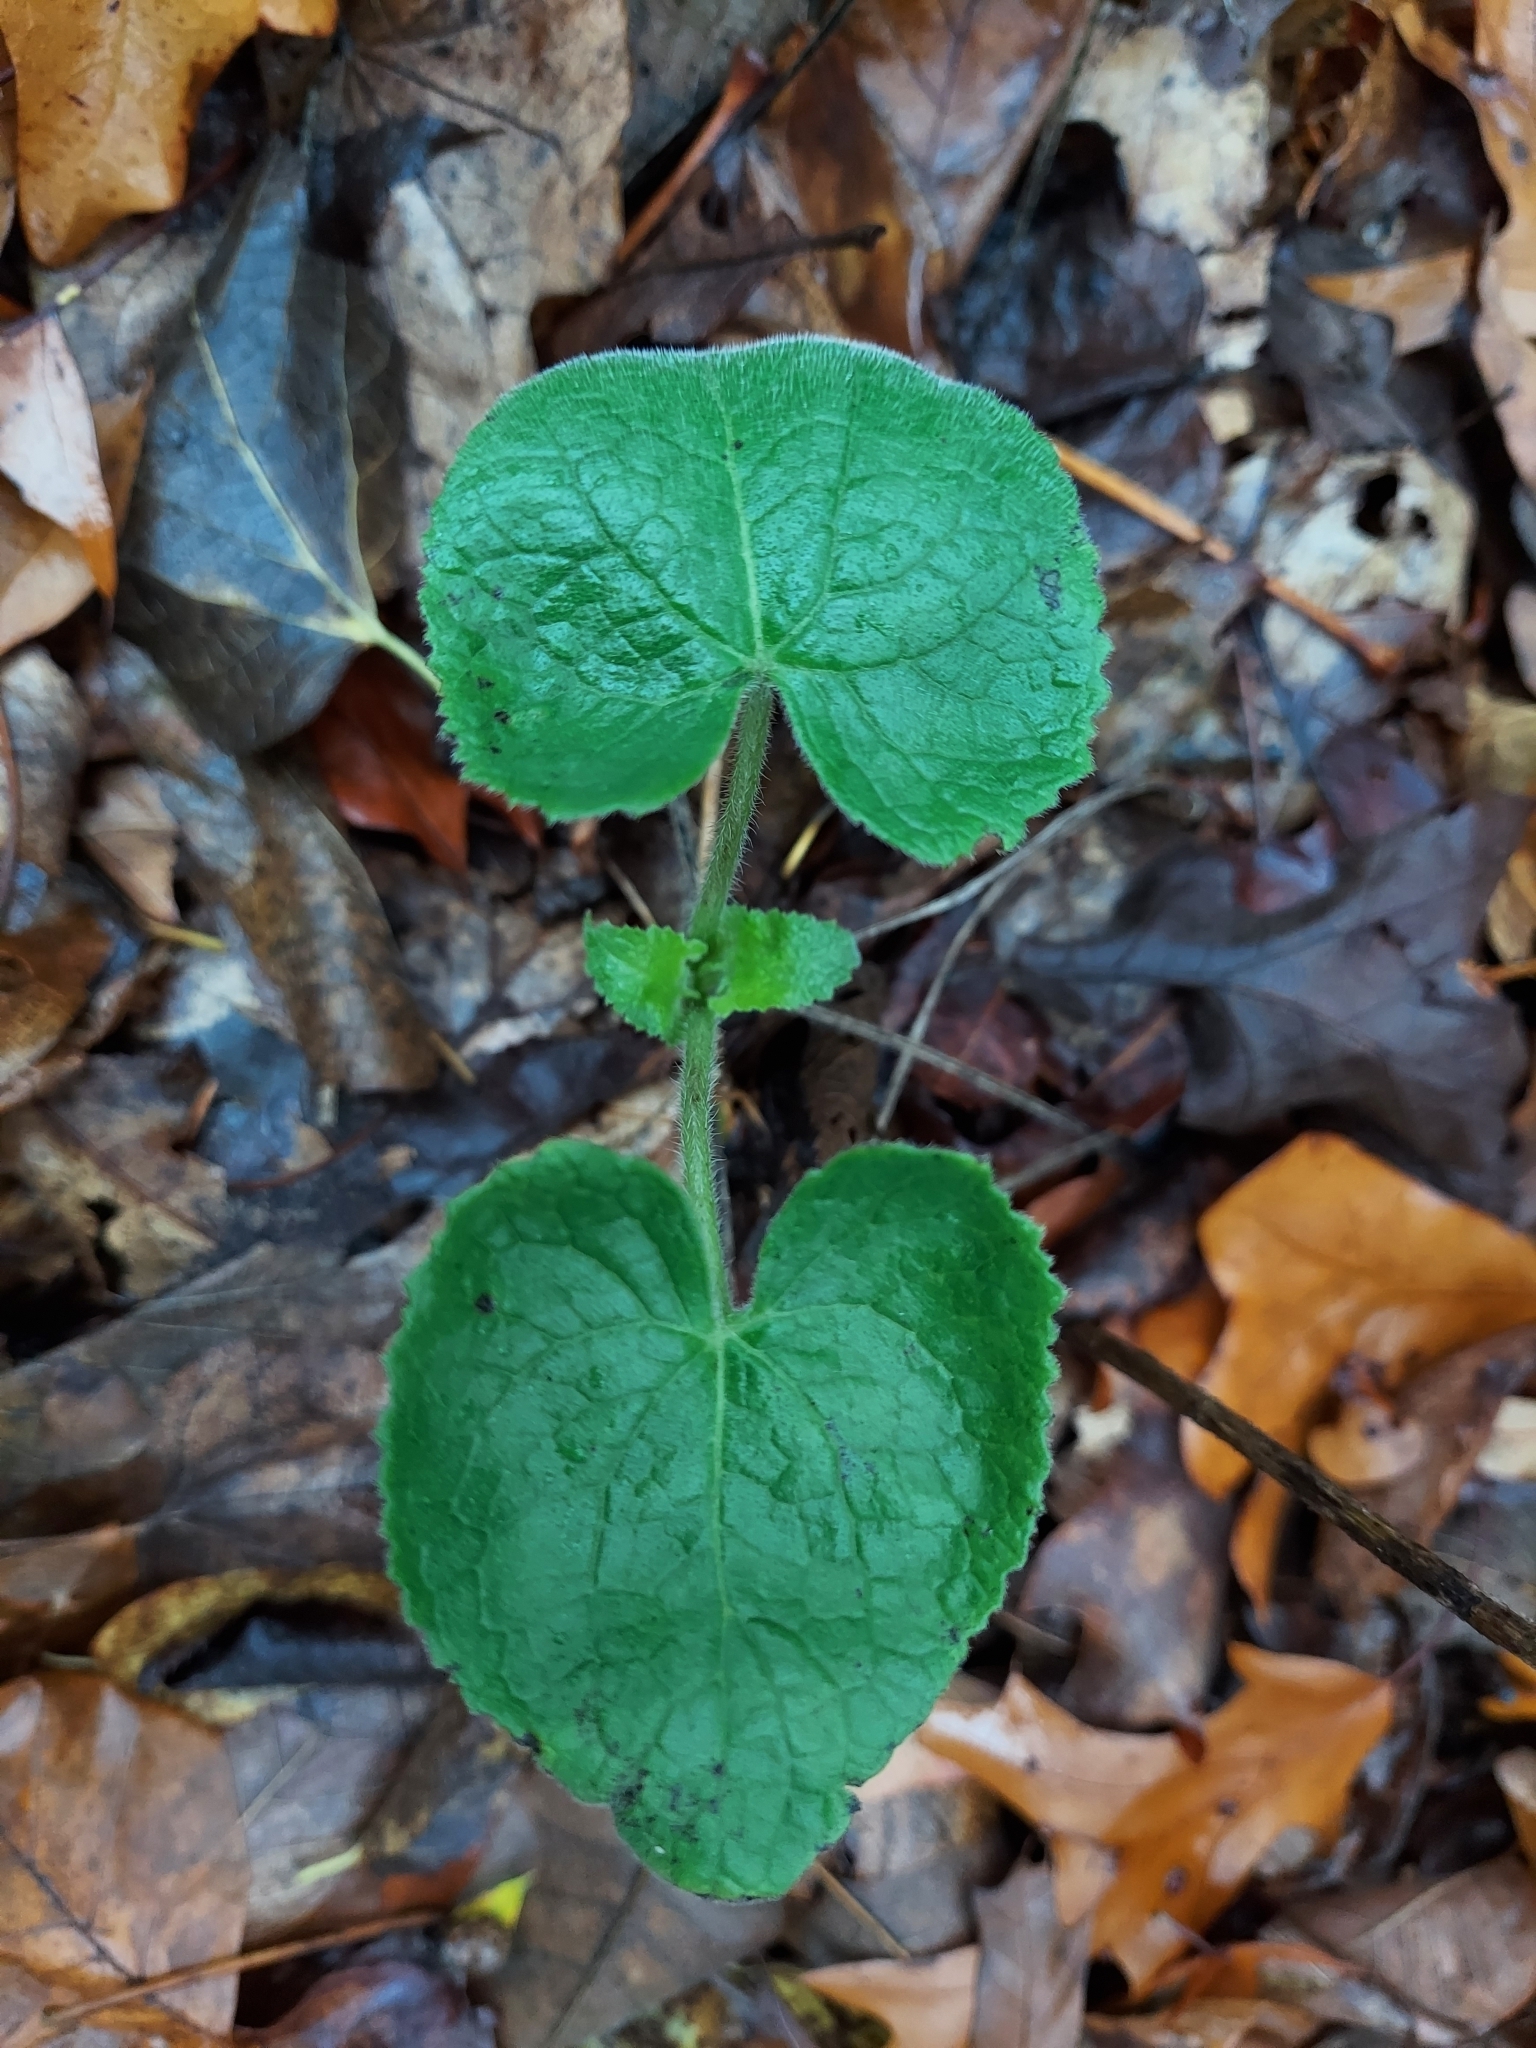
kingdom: Plantae
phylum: Tracheophyta
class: Magnoliopsida
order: Brassicales
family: Brassicaceae
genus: Lunaria
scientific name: Lunaria annua
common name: Honesty
